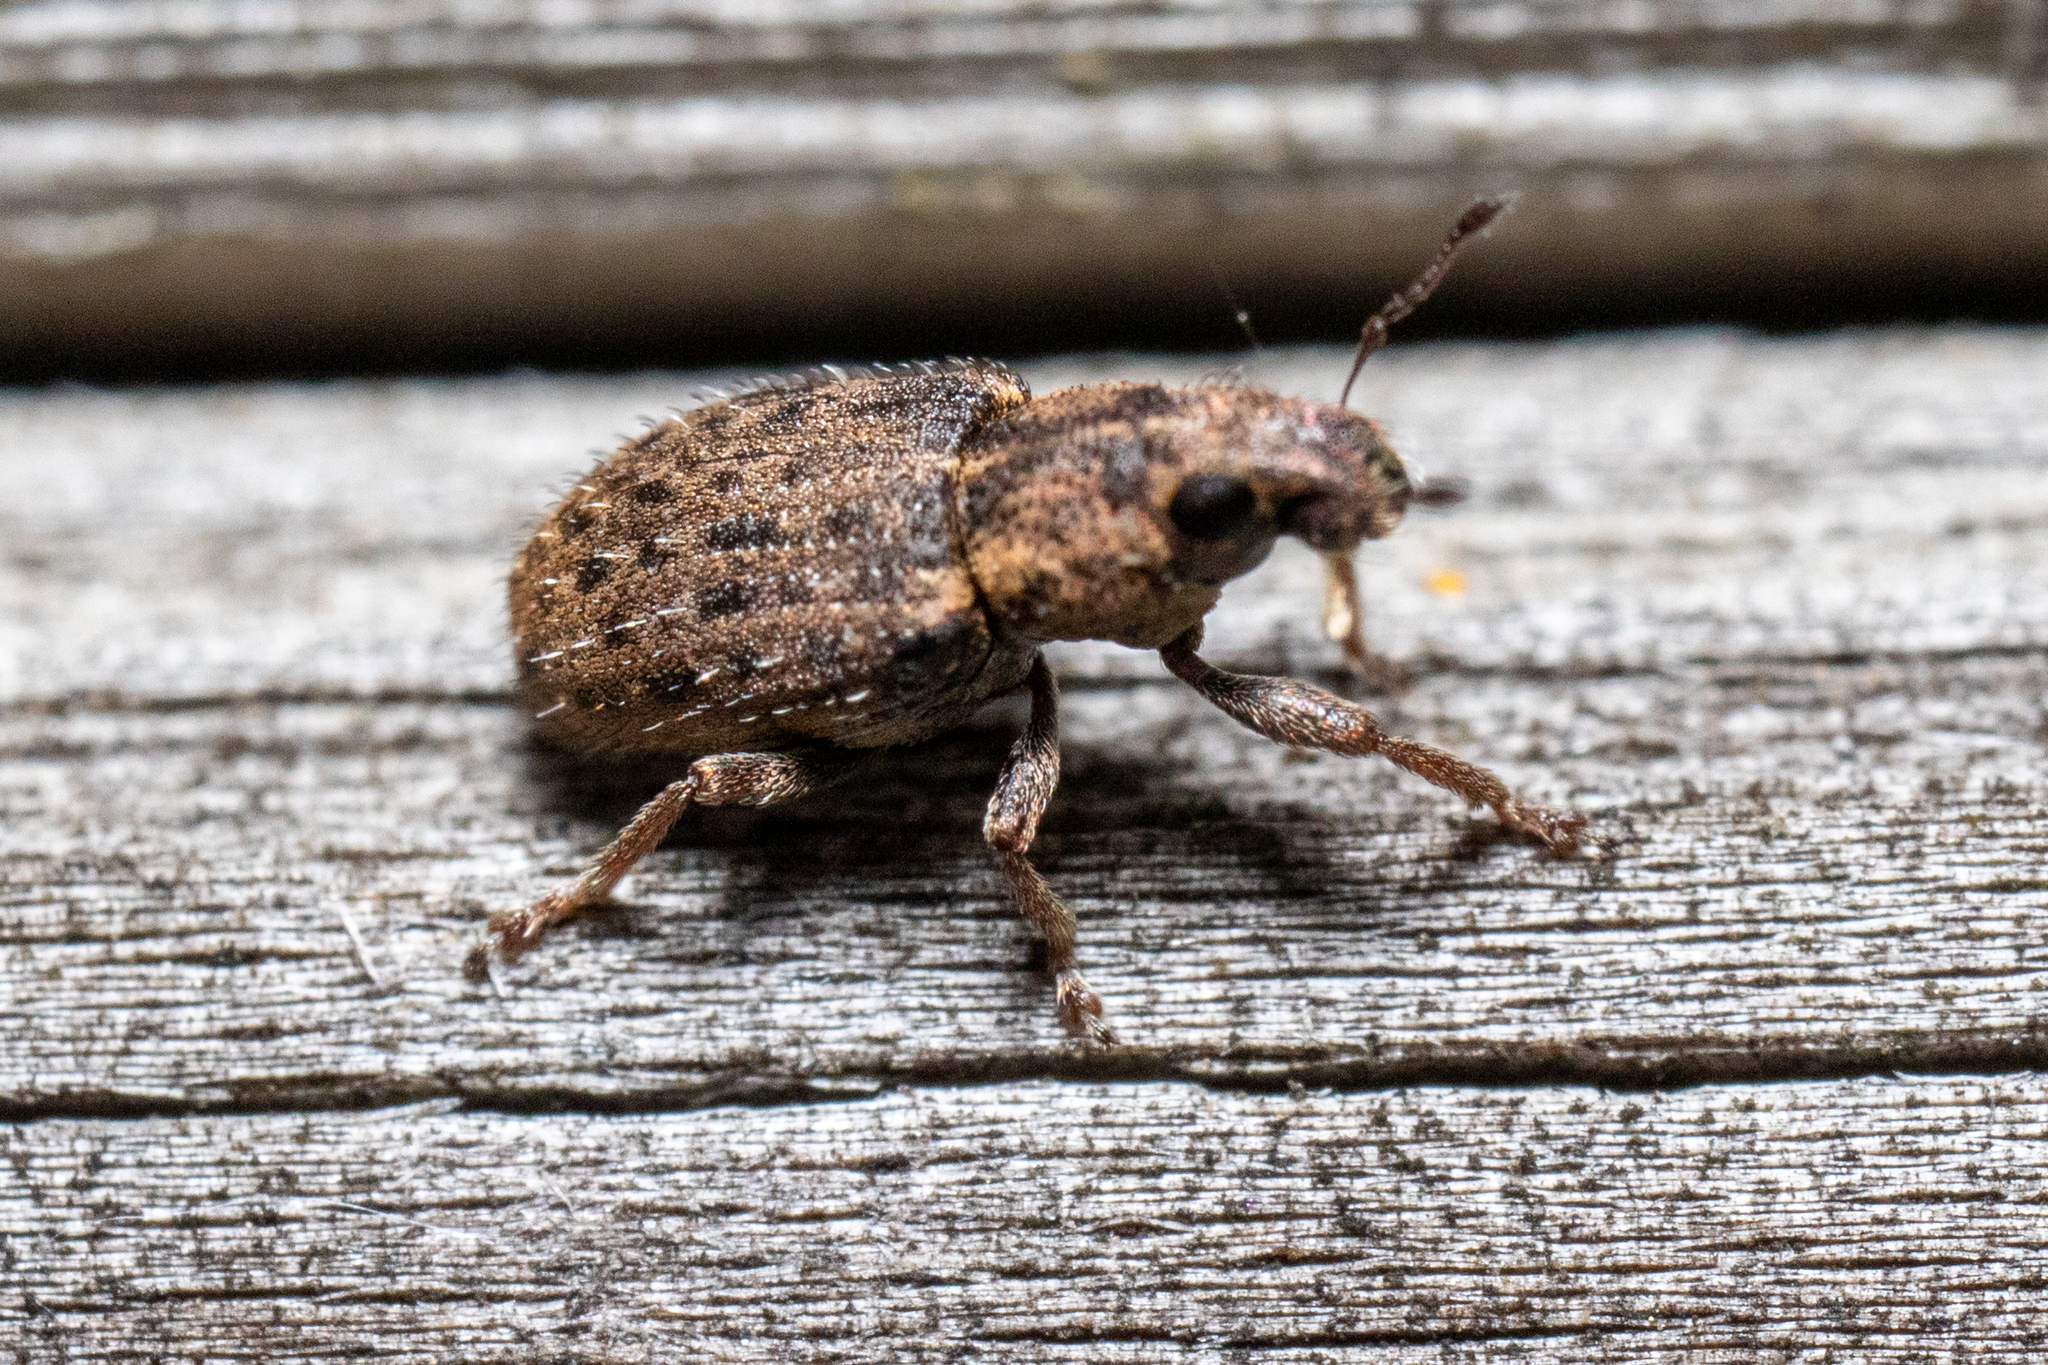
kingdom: Animalia
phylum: Arthropoda
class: Insecta
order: Coleoptera
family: Curculionidae
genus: Sitona
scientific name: Sitona hispidulus
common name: Clover weevil
